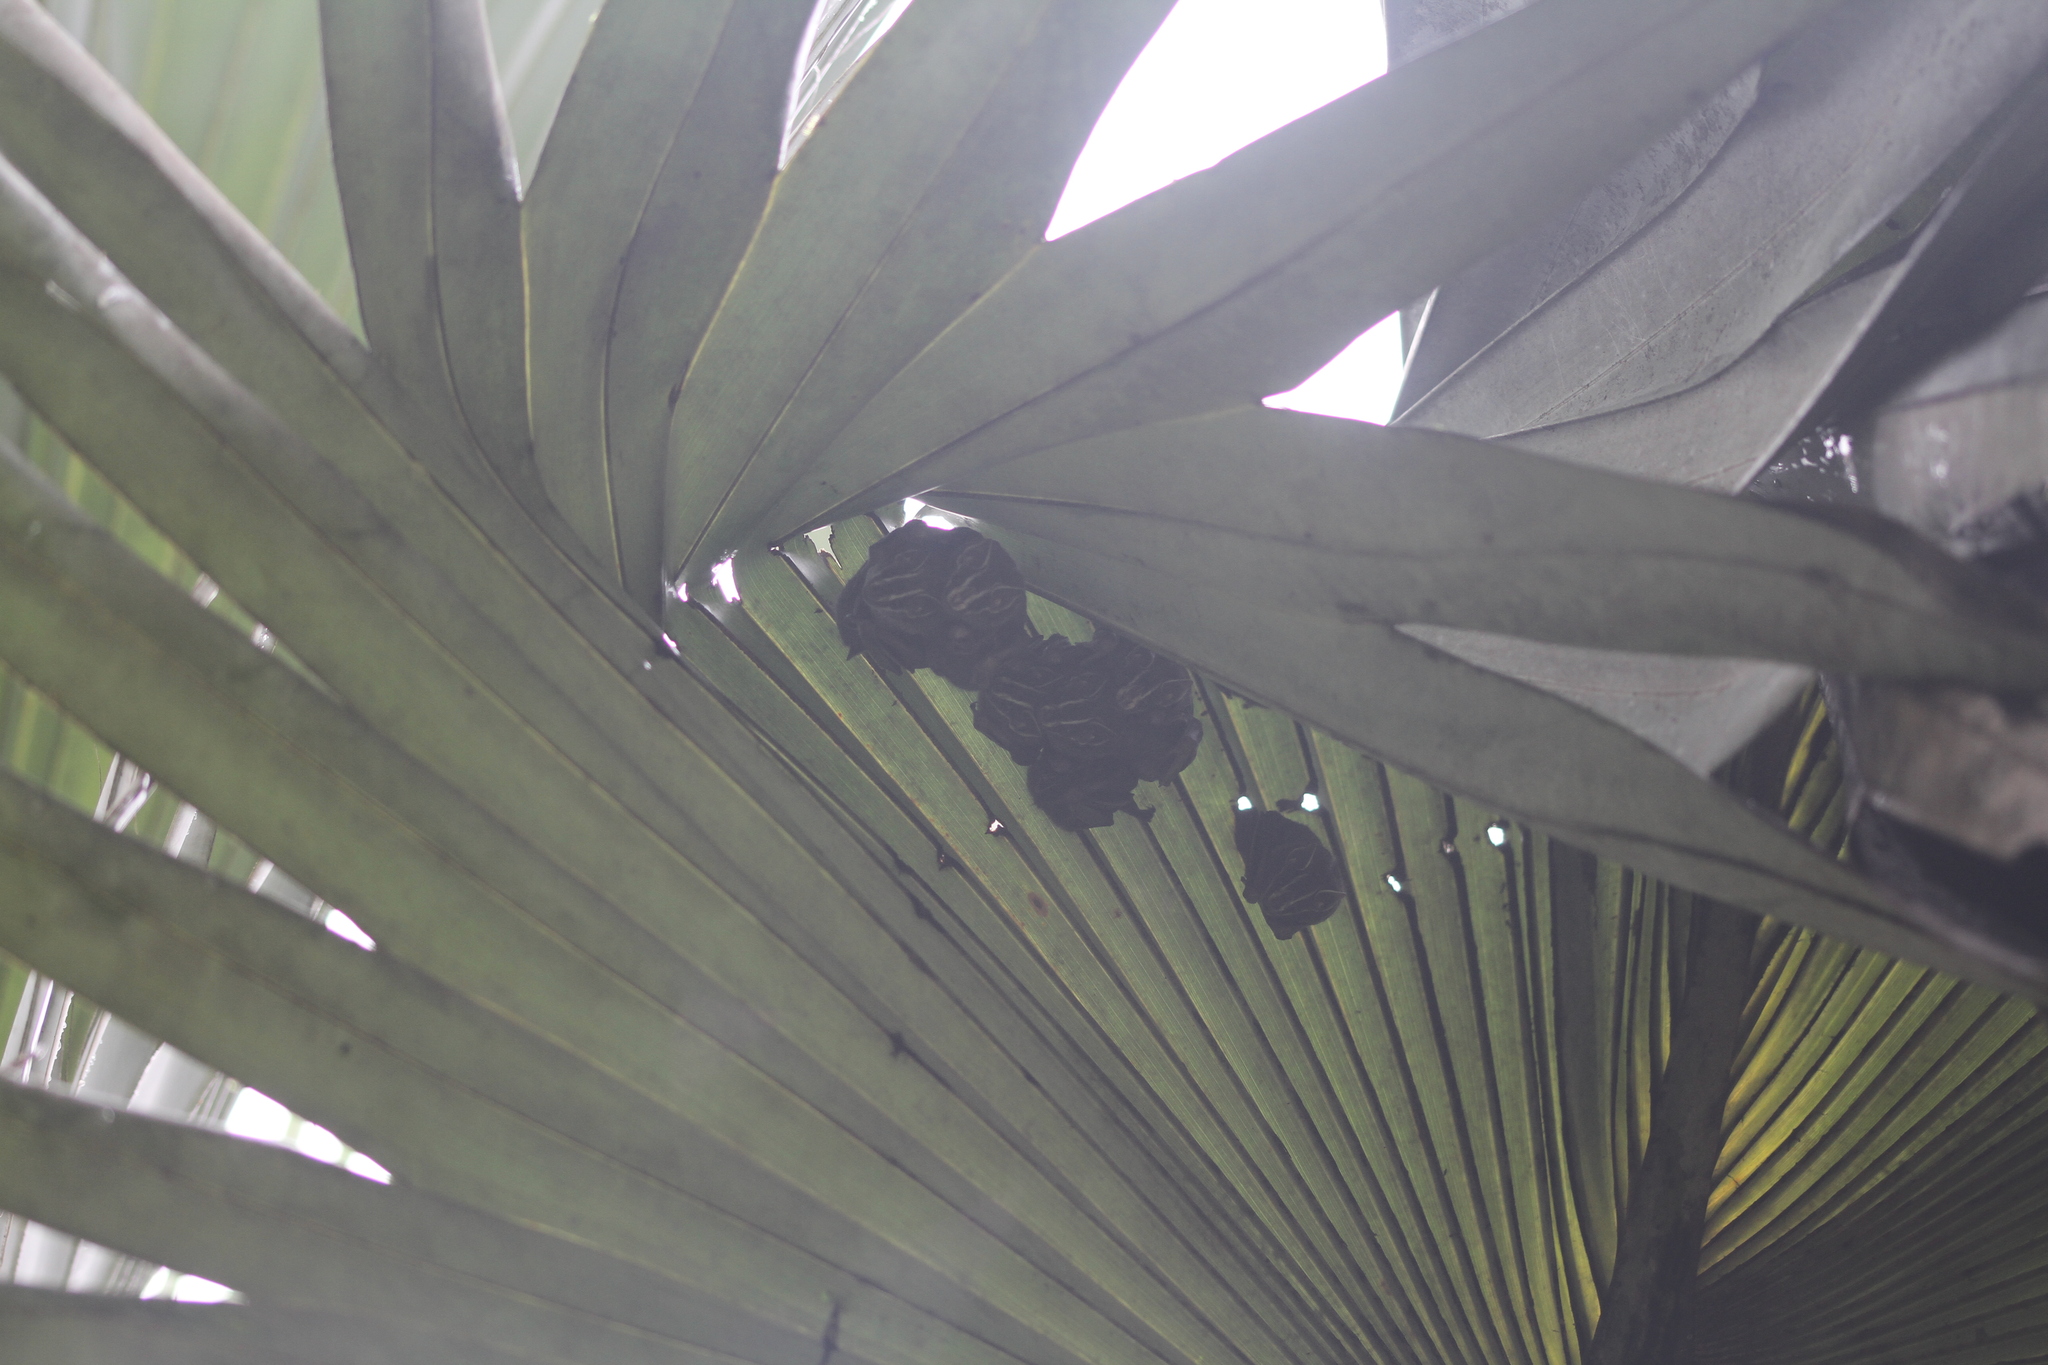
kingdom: Animalia
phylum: Chordata
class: Mammalia
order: Chiroptera
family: Phyllostomidae
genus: Uroderma
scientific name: Uroderma bilobatum
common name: Common tent-making bat
